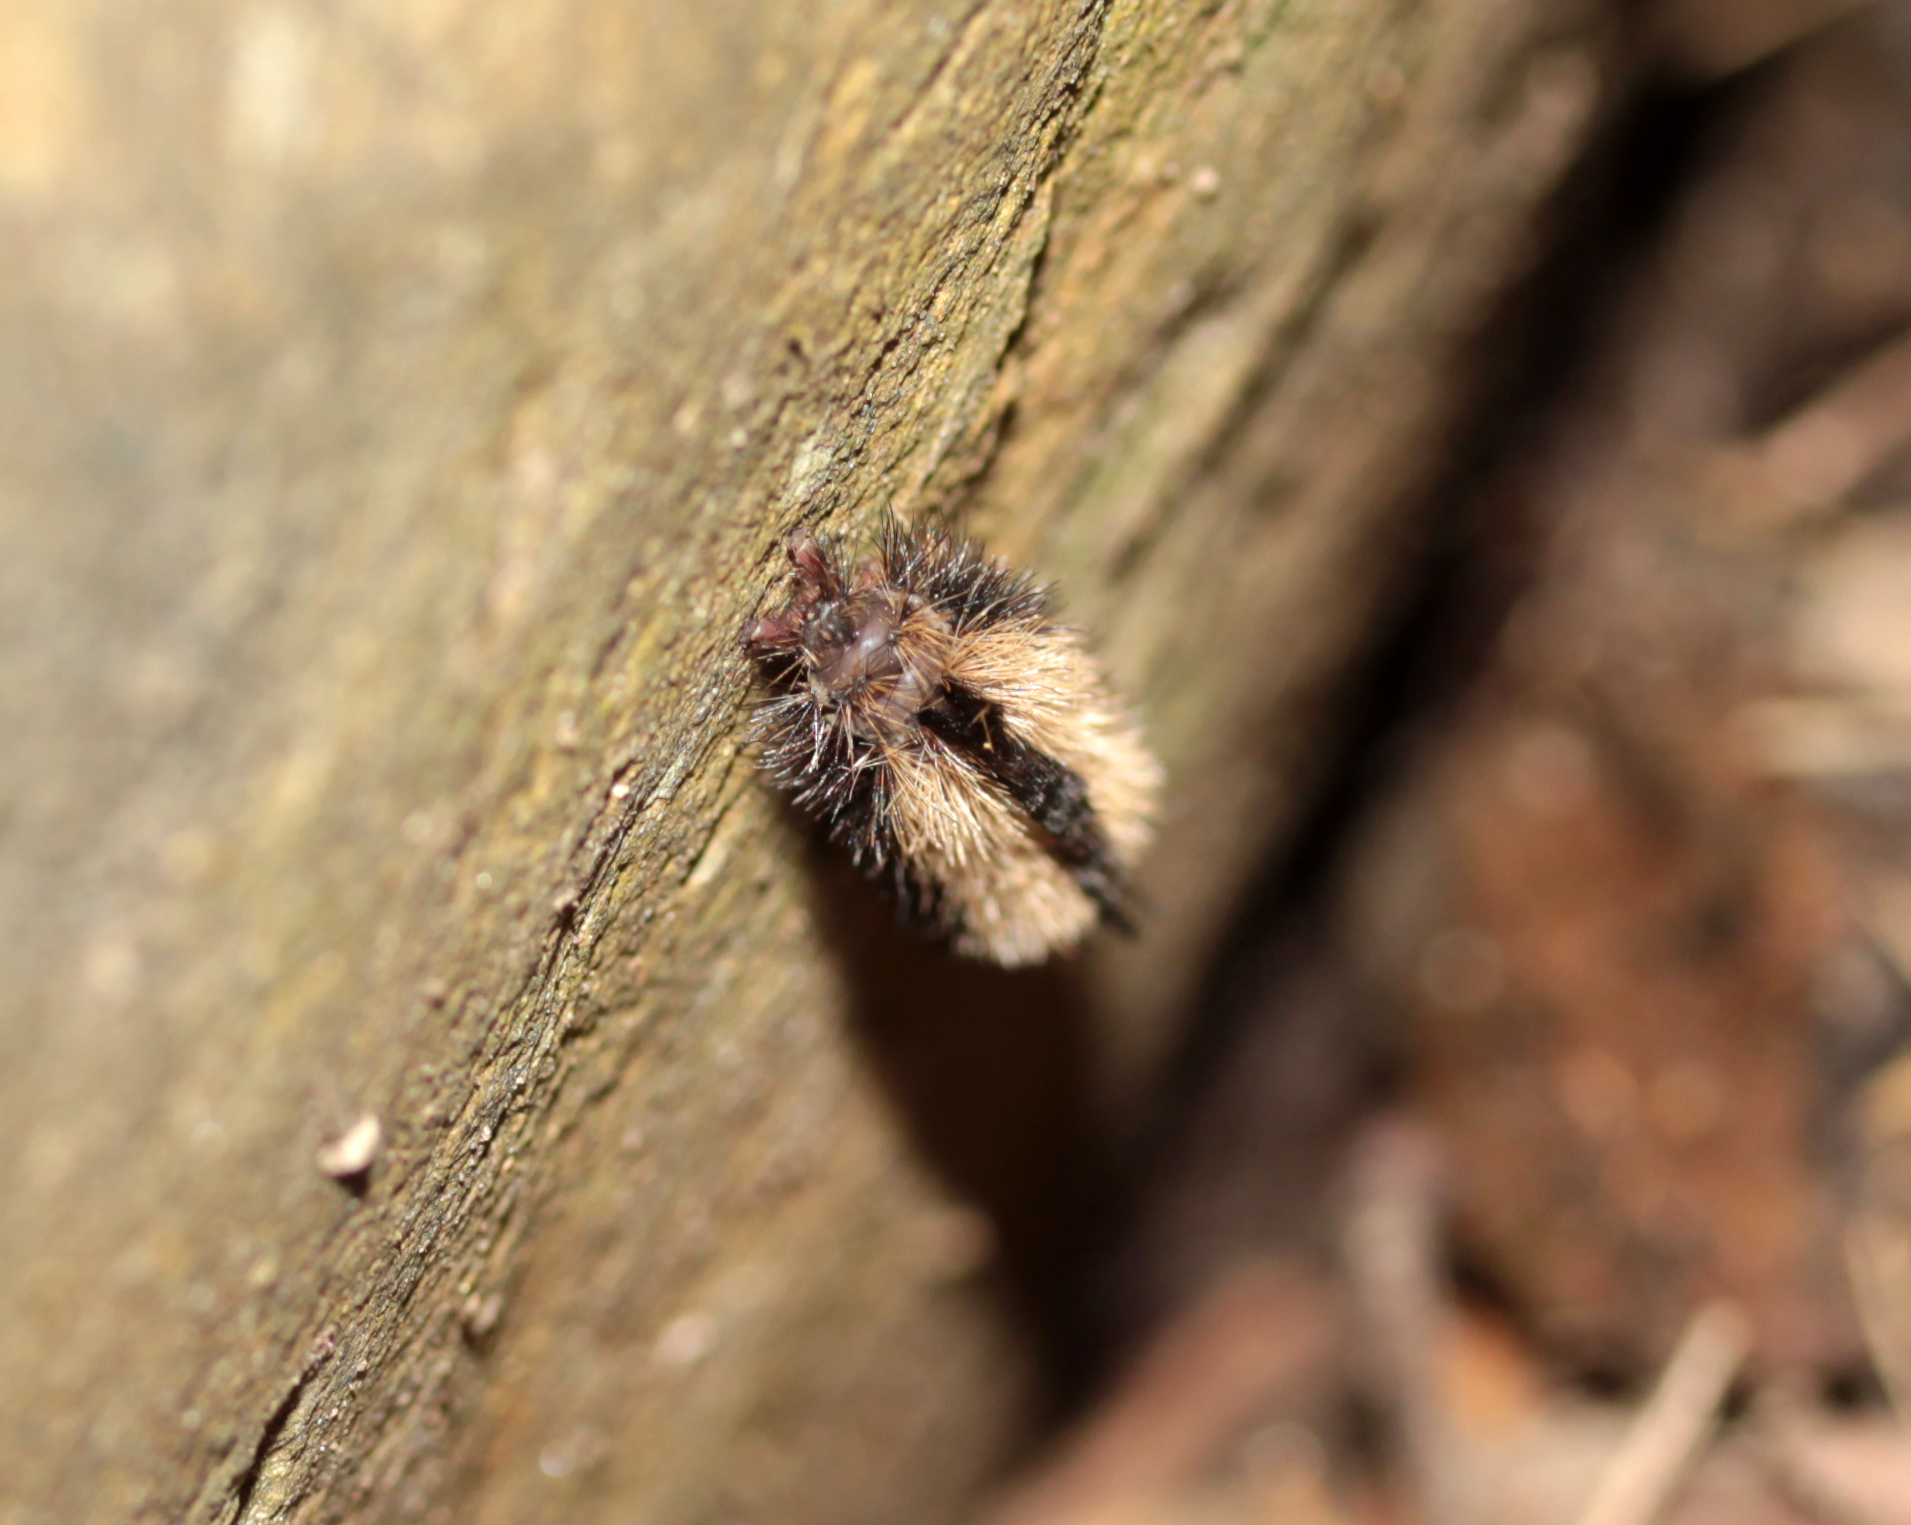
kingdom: Animalia
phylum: Arthropoda
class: Insecta
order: Lepidoptera
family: Erebidae
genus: Ctenucha
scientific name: Ctenucha virginica
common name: Virginia ctenucha moth
